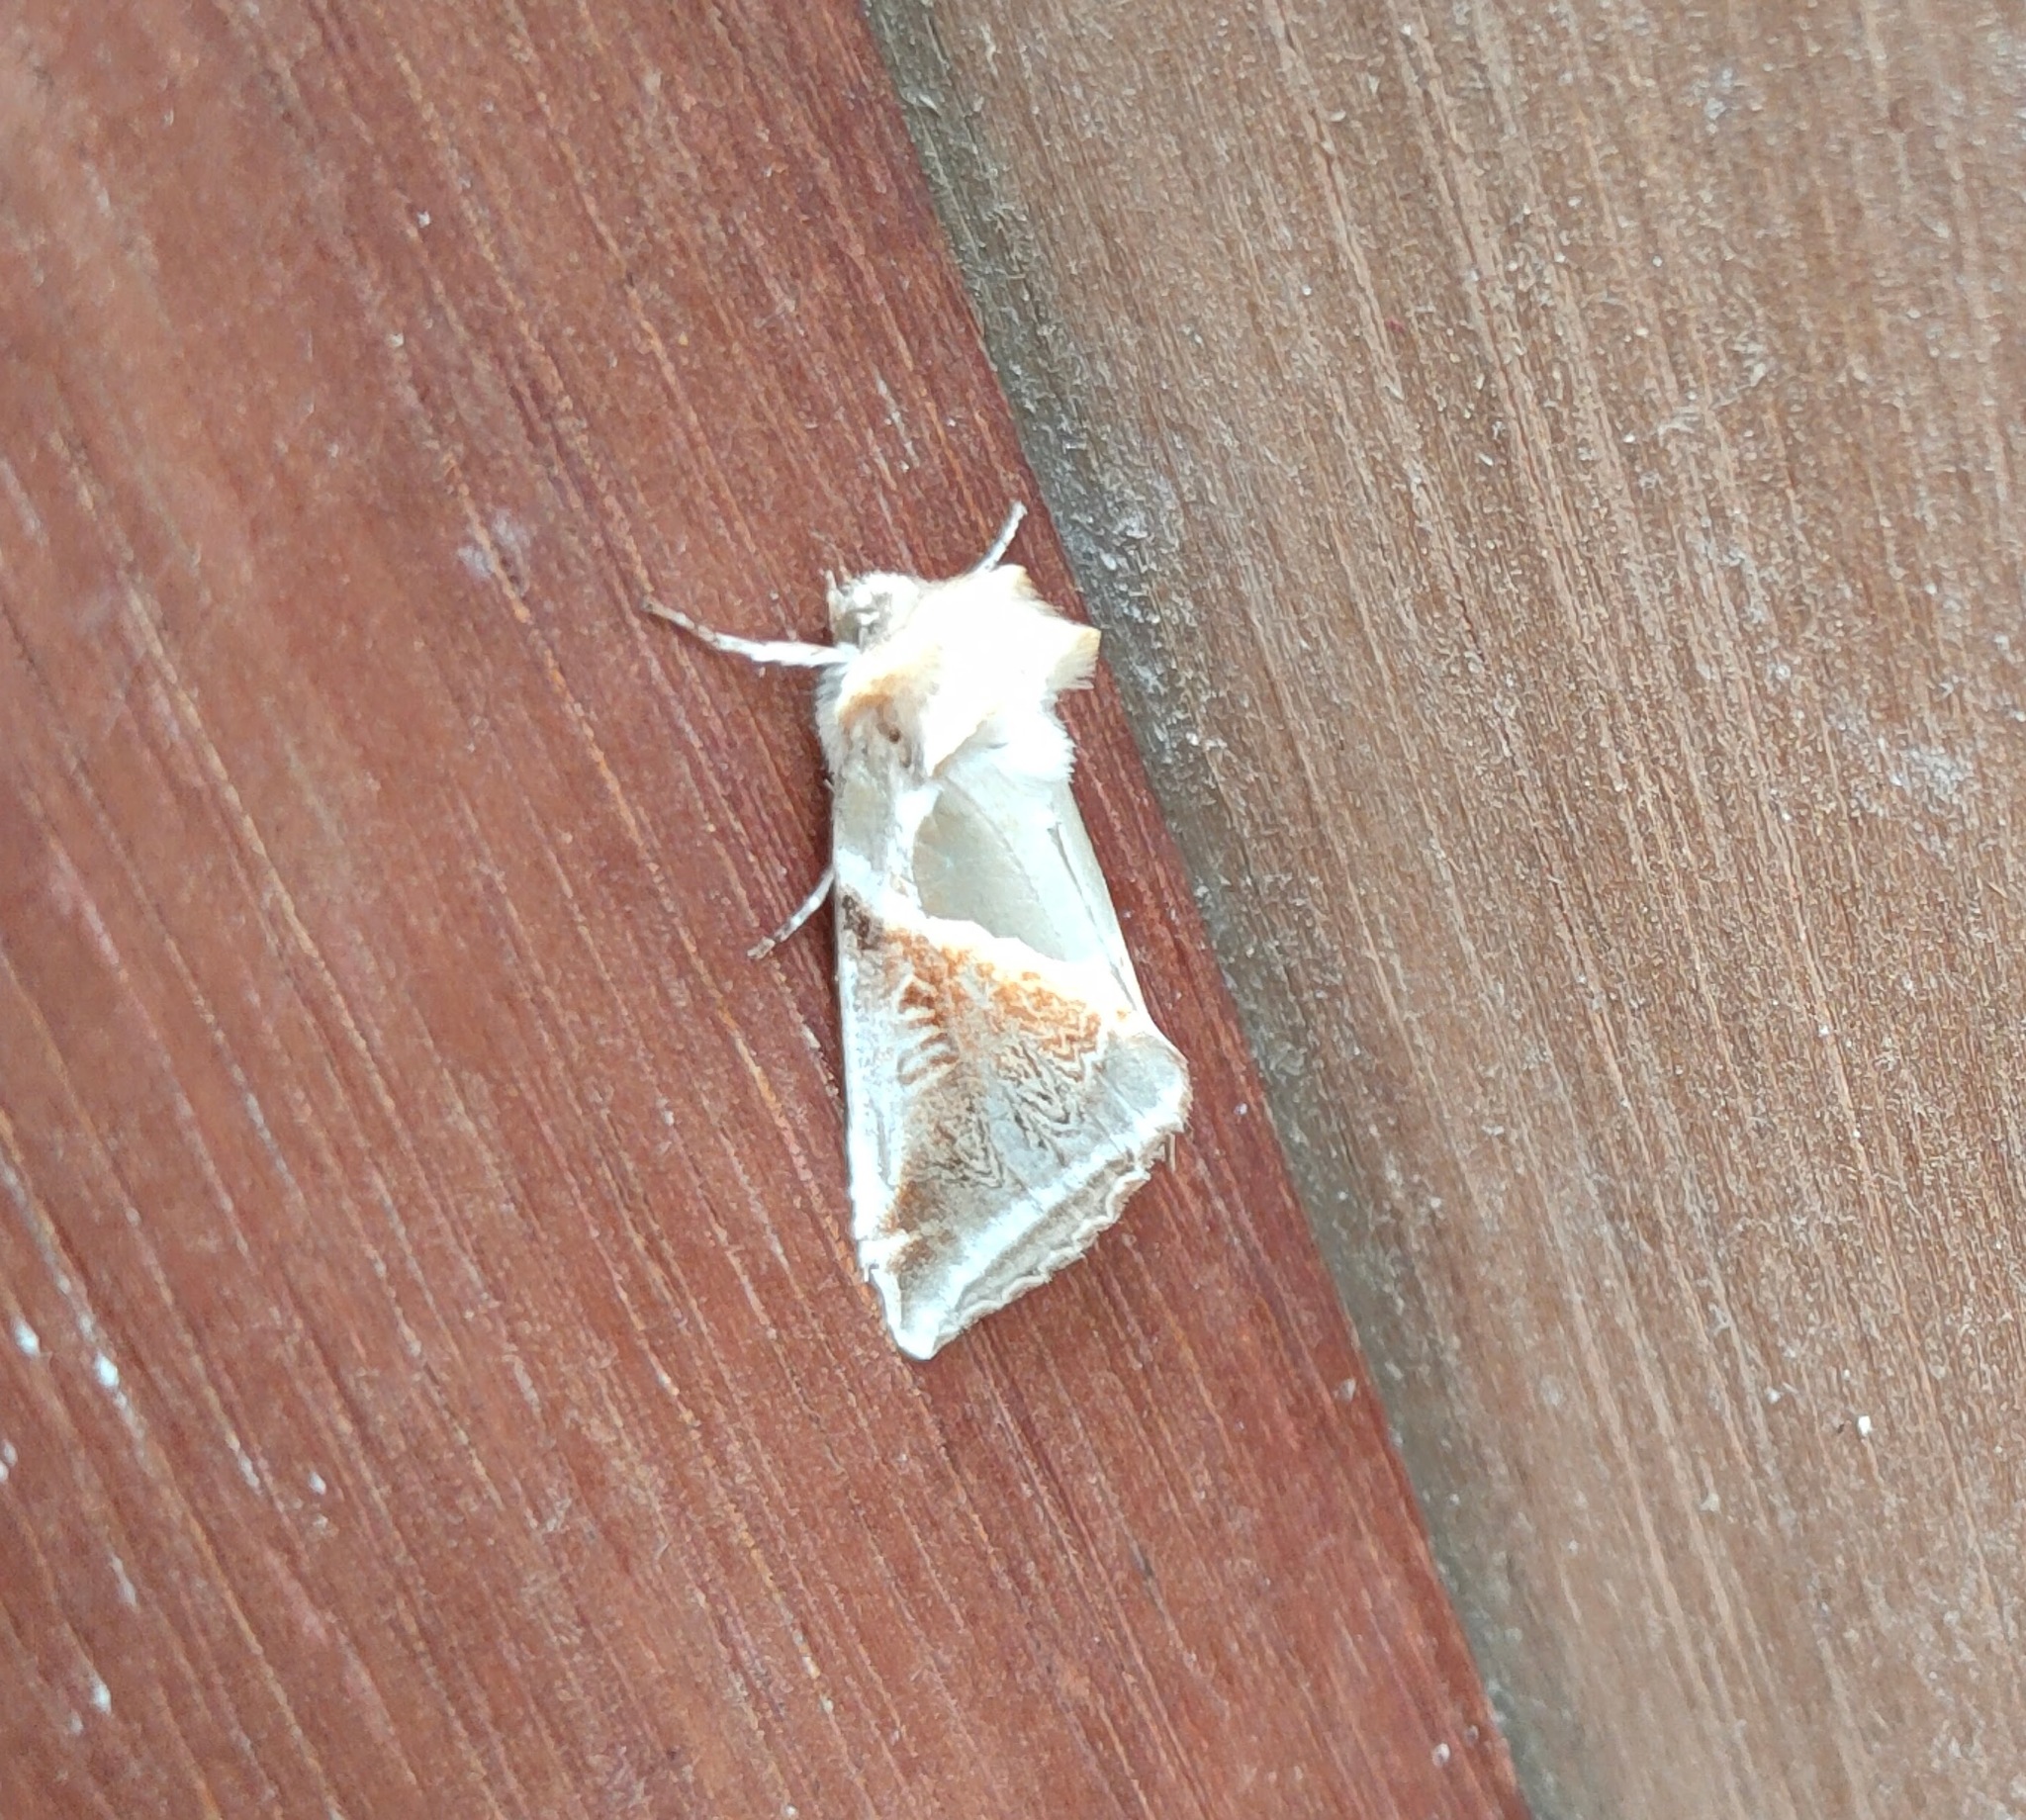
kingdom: Animalia
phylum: Arthropoda
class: Insecta
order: Lepidoptera
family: Drepanidae
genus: Habrosyne
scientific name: Habrosyne pyritoides
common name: Buff arches
